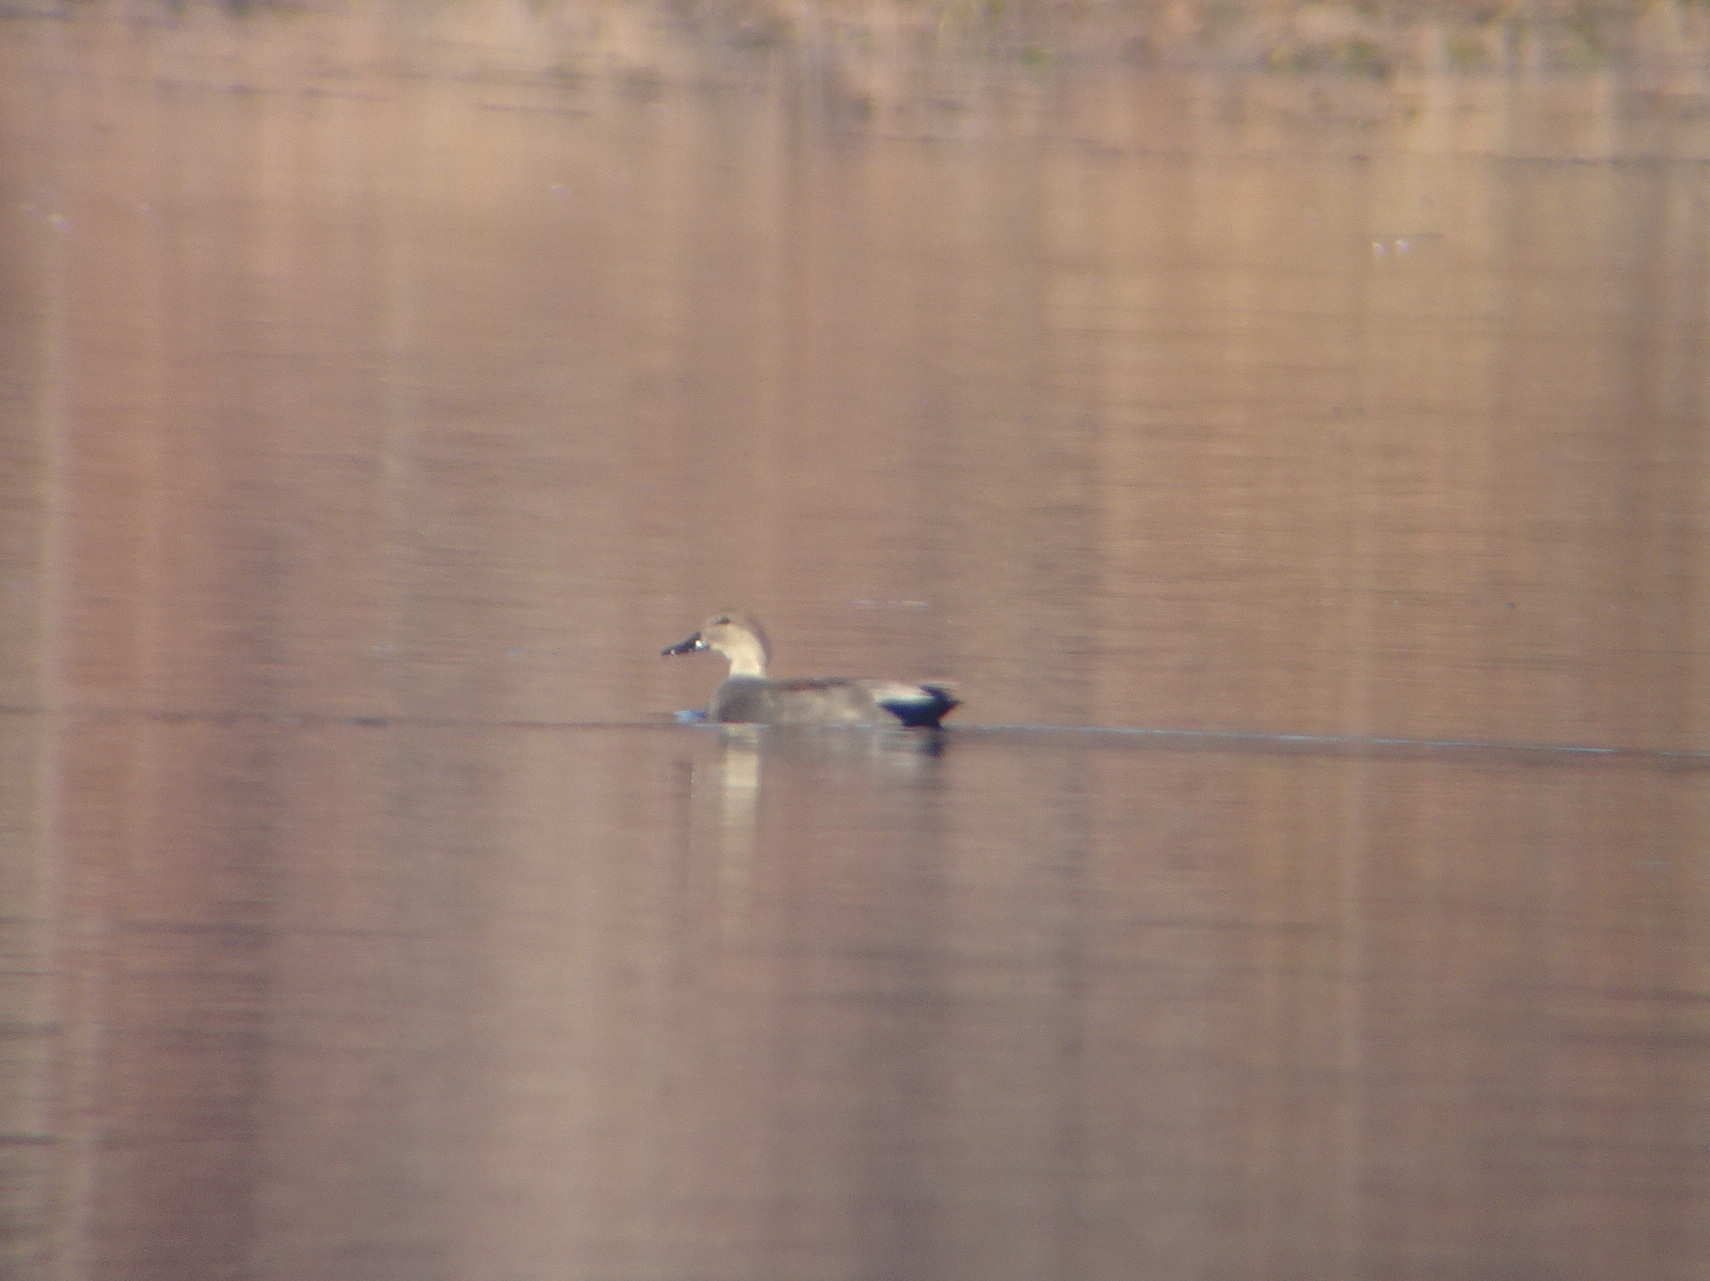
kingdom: Animalia
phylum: Chordata
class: Aves
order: Anseriformes
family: Anatidae
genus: Mareca
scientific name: Mareca strepera
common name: Gadwall
